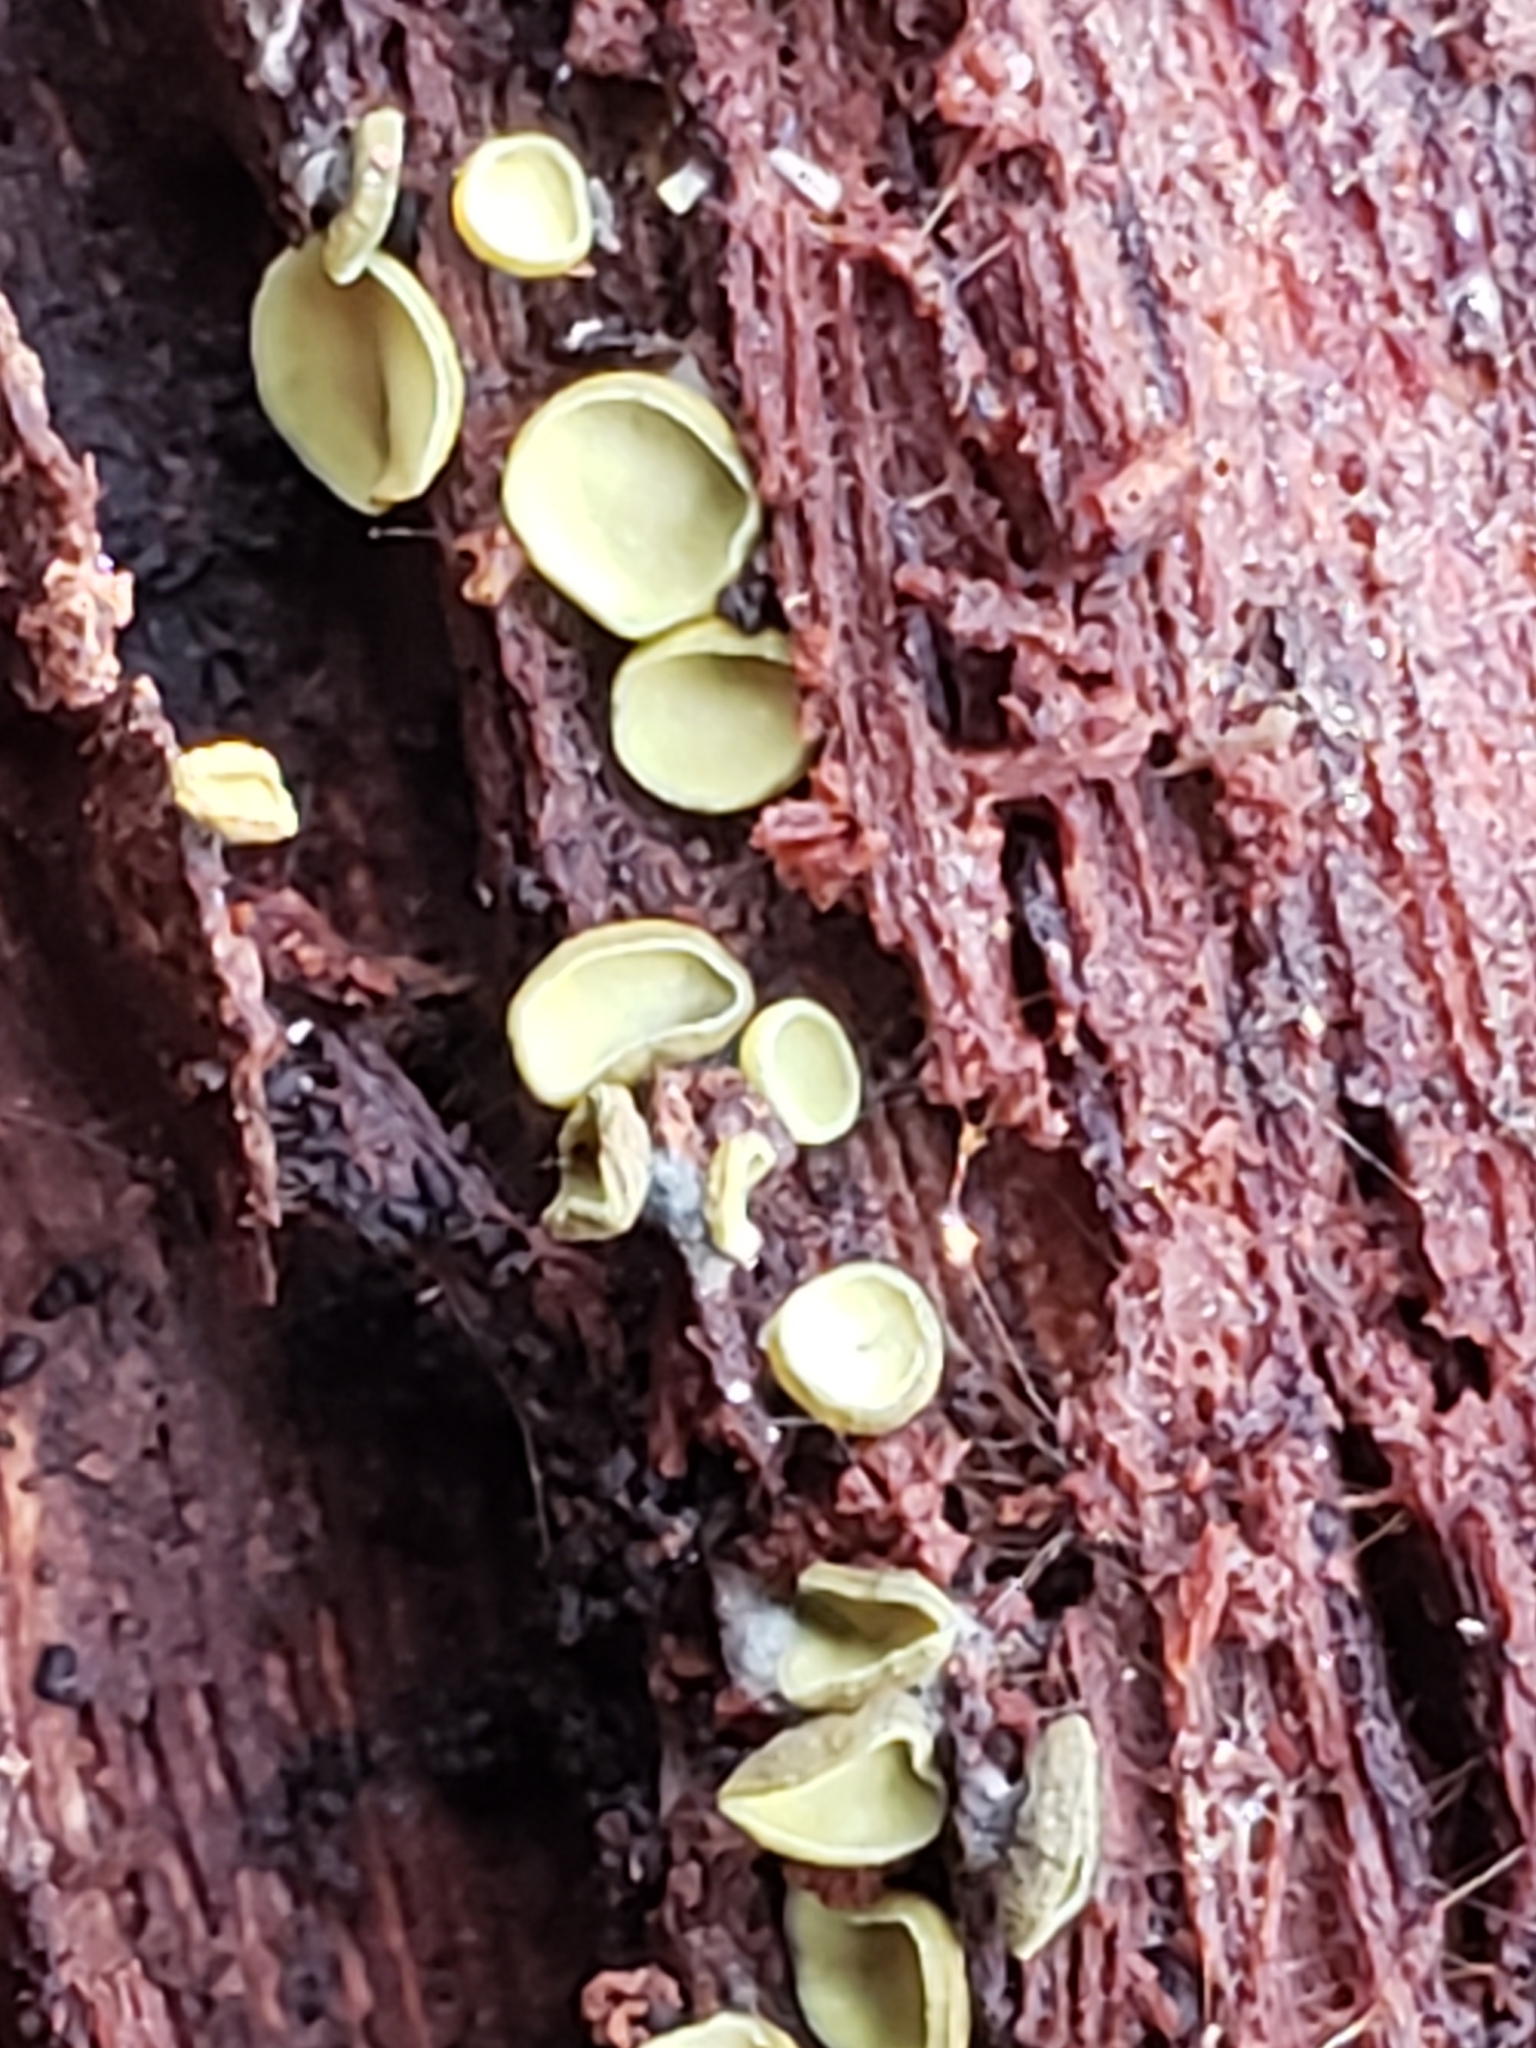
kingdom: Fungi
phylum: Ascomycota
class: Leotiomycetes
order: Helotiales
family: Chlorospleniaceae
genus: Chlorosplenium
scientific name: Chlorosplenium chlora
